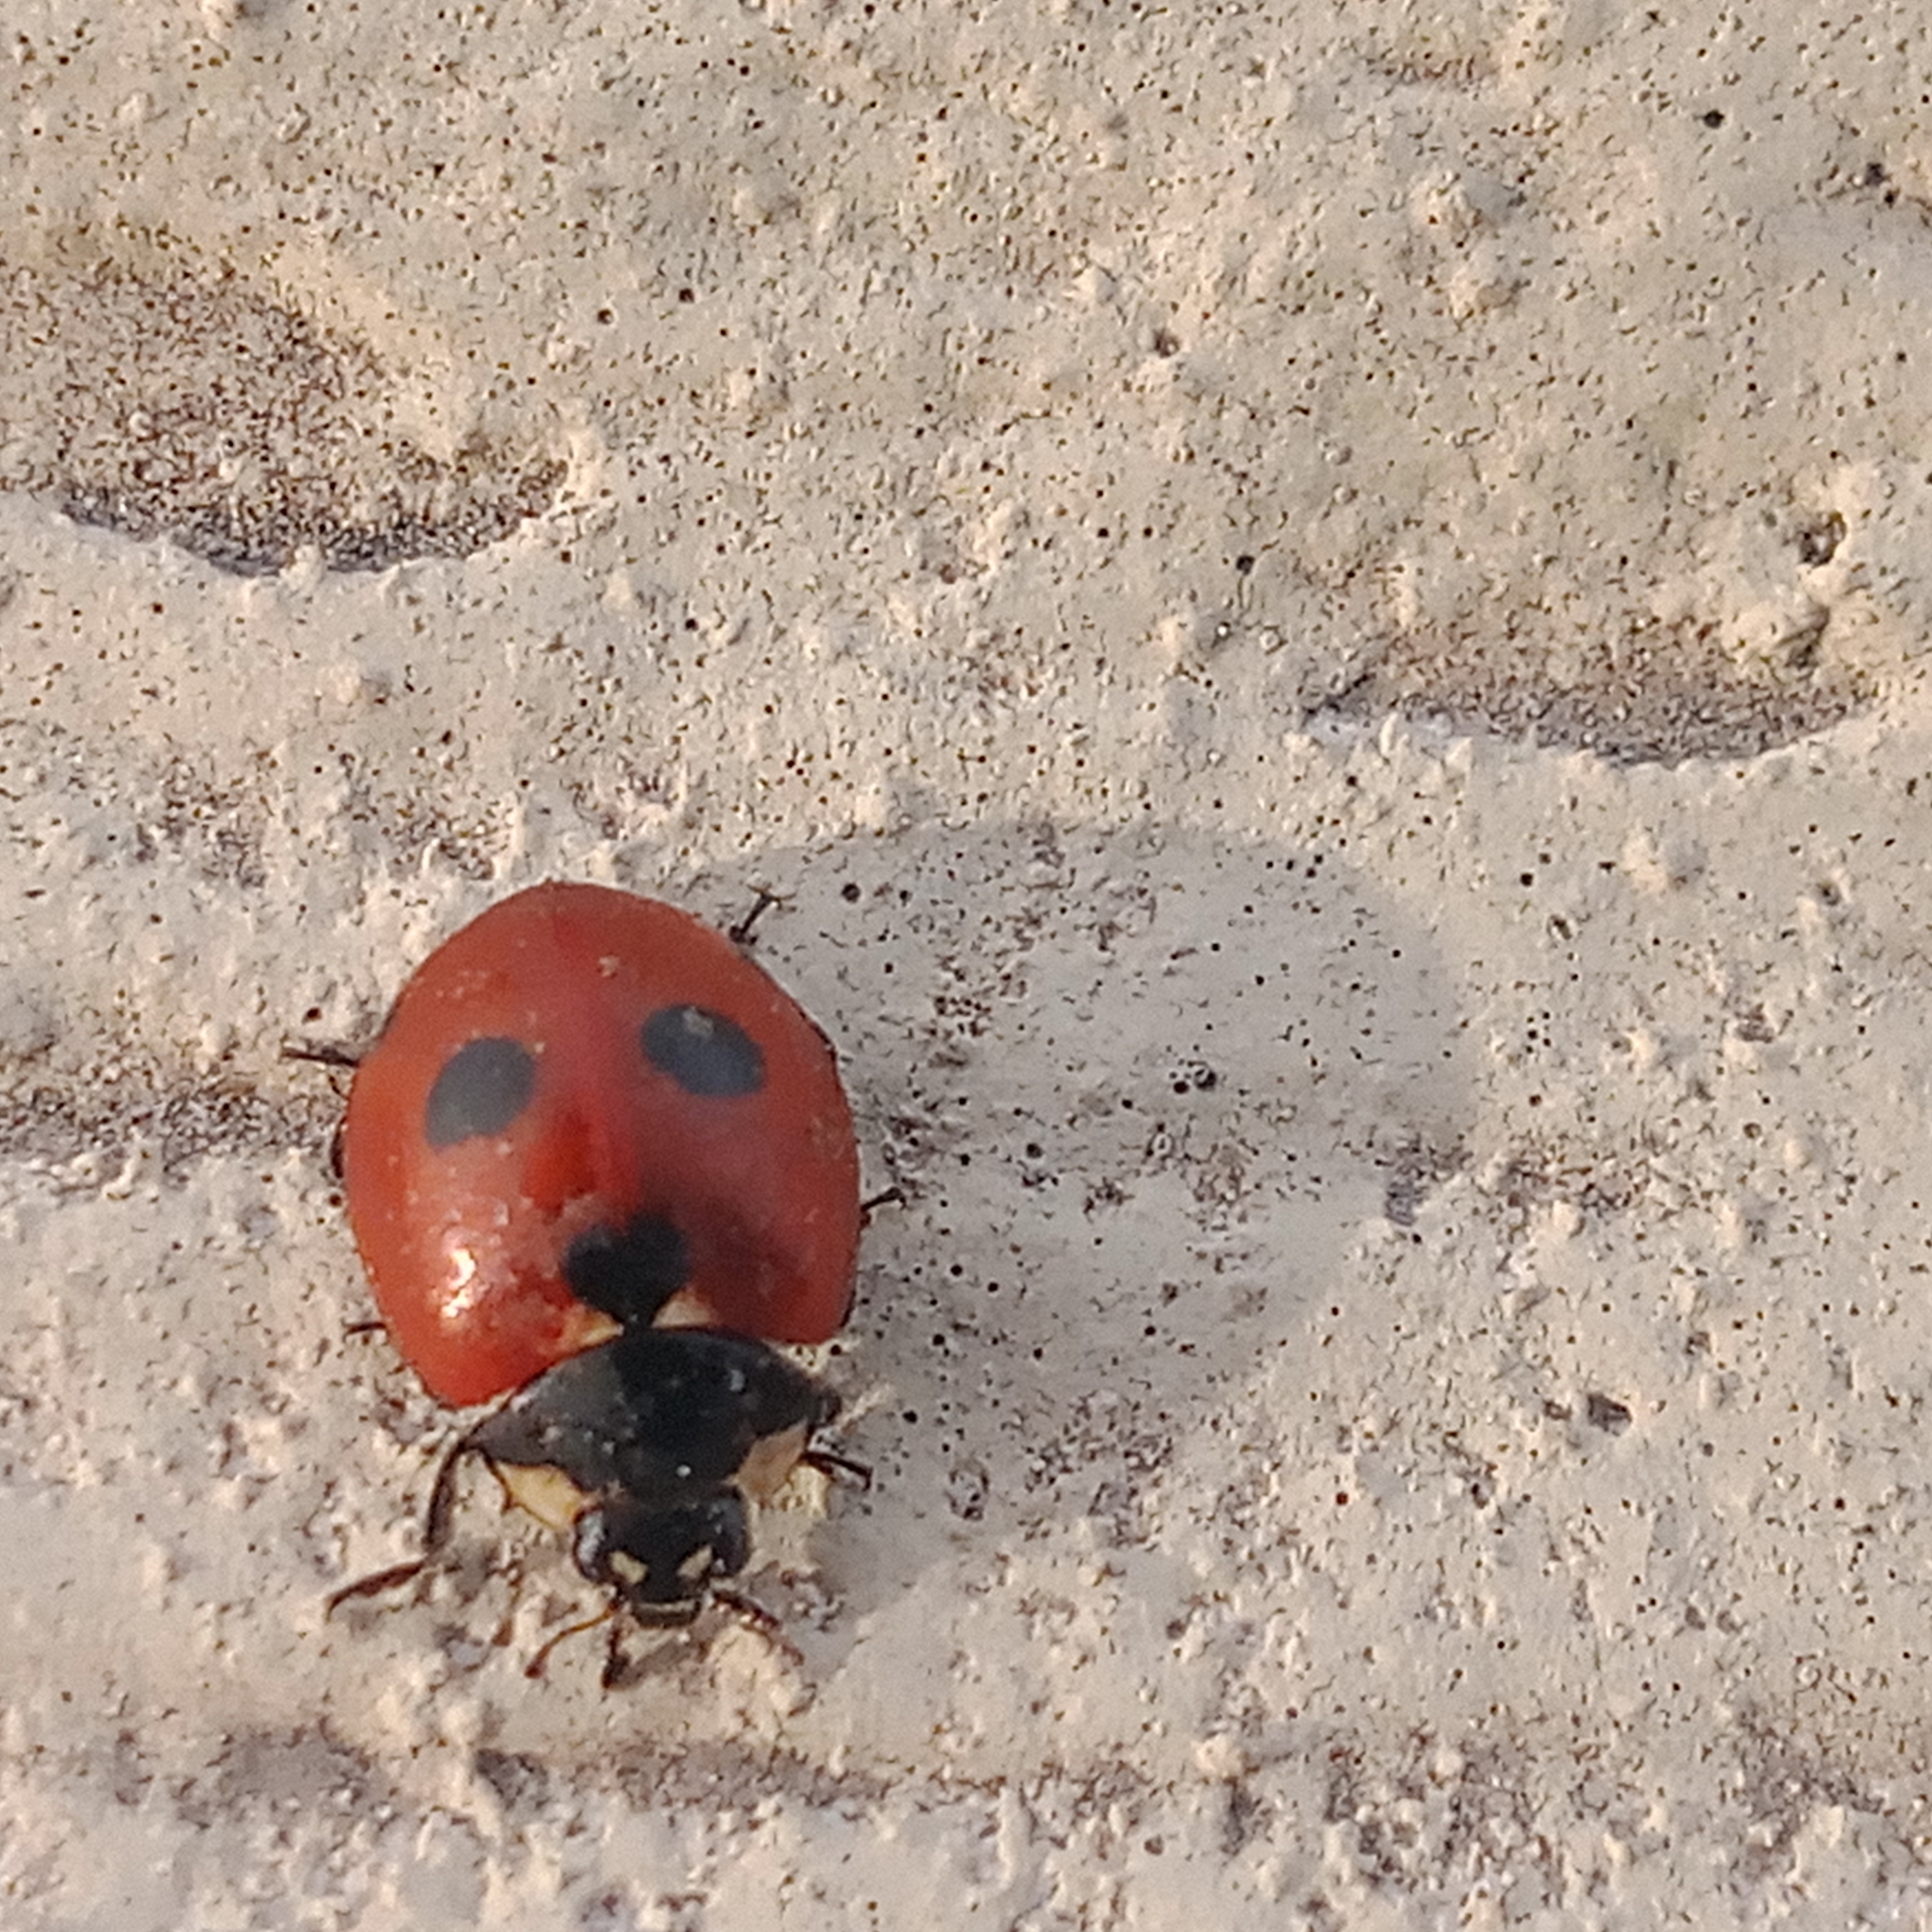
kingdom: Animalia
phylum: Arthropoda
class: Insecta
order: Coleoptera
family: Coccinellidae
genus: Coccinella
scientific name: Coccinella quinquepunctata
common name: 5-spot ladybird
